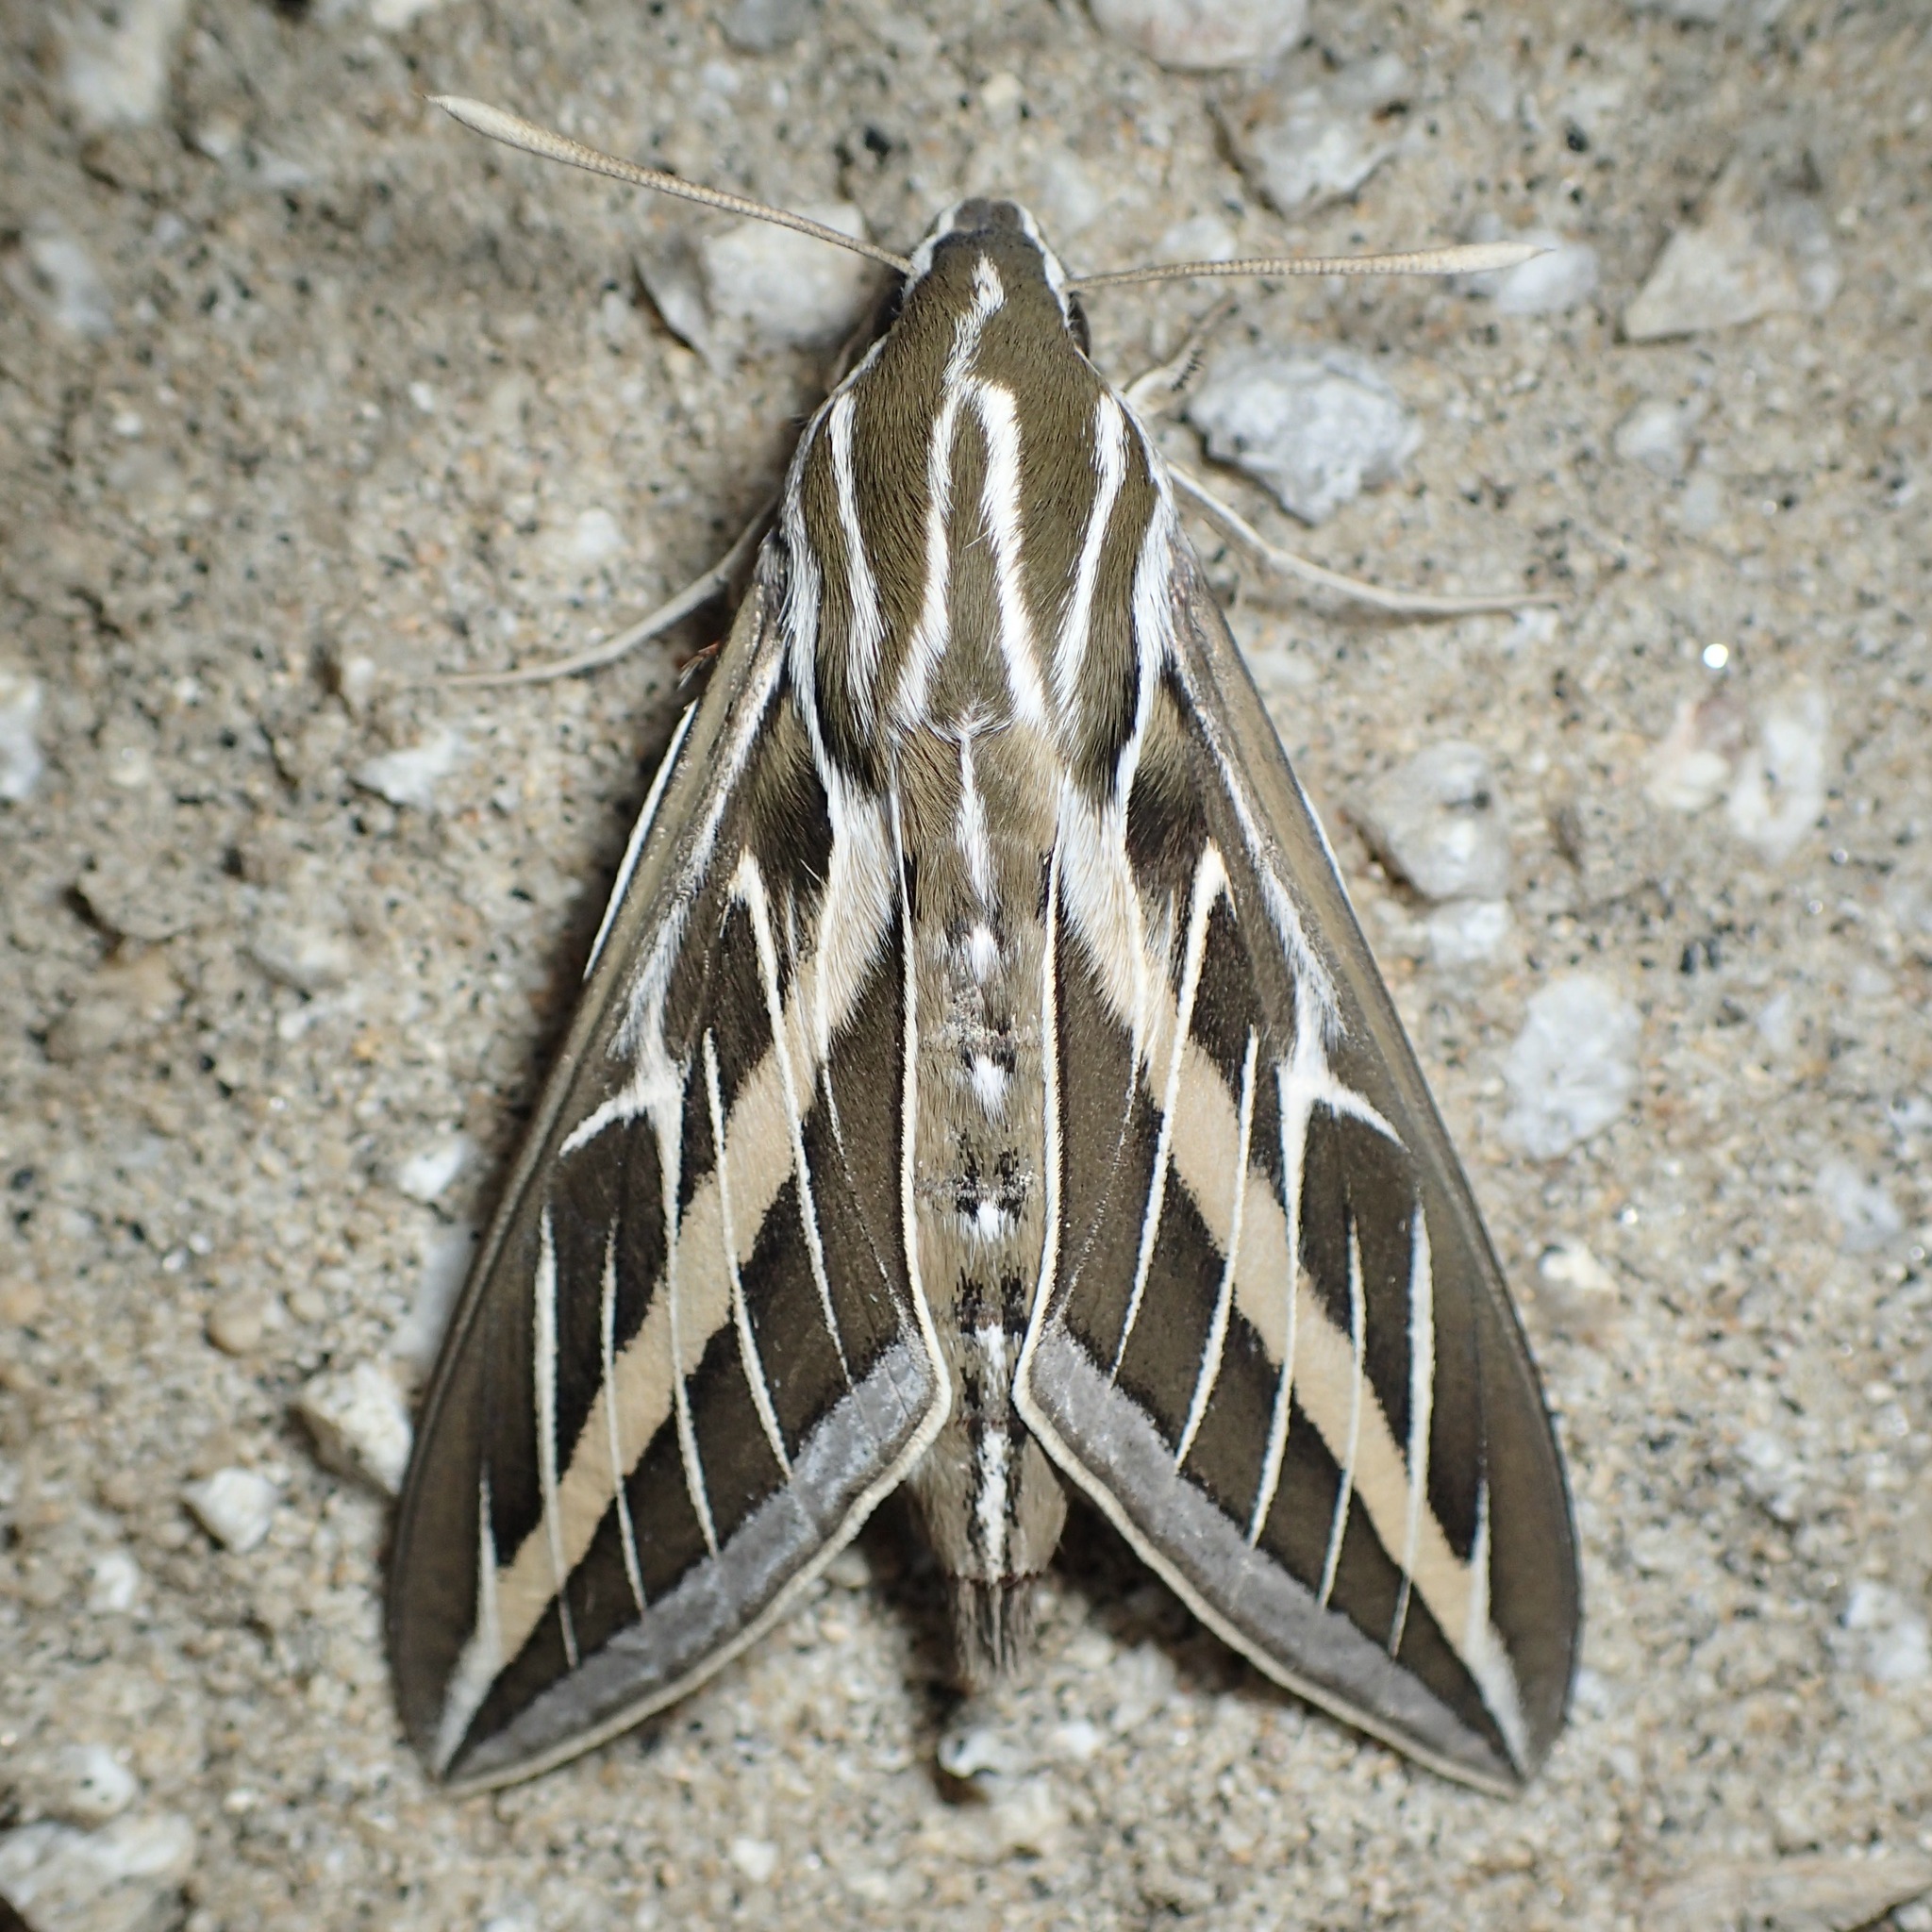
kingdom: Animalia
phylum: Arthropoda
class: Insecta
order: Lepidoptera
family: Sphingidae
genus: Hyles
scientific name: Hyles lineata
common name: White-lined sphinx
